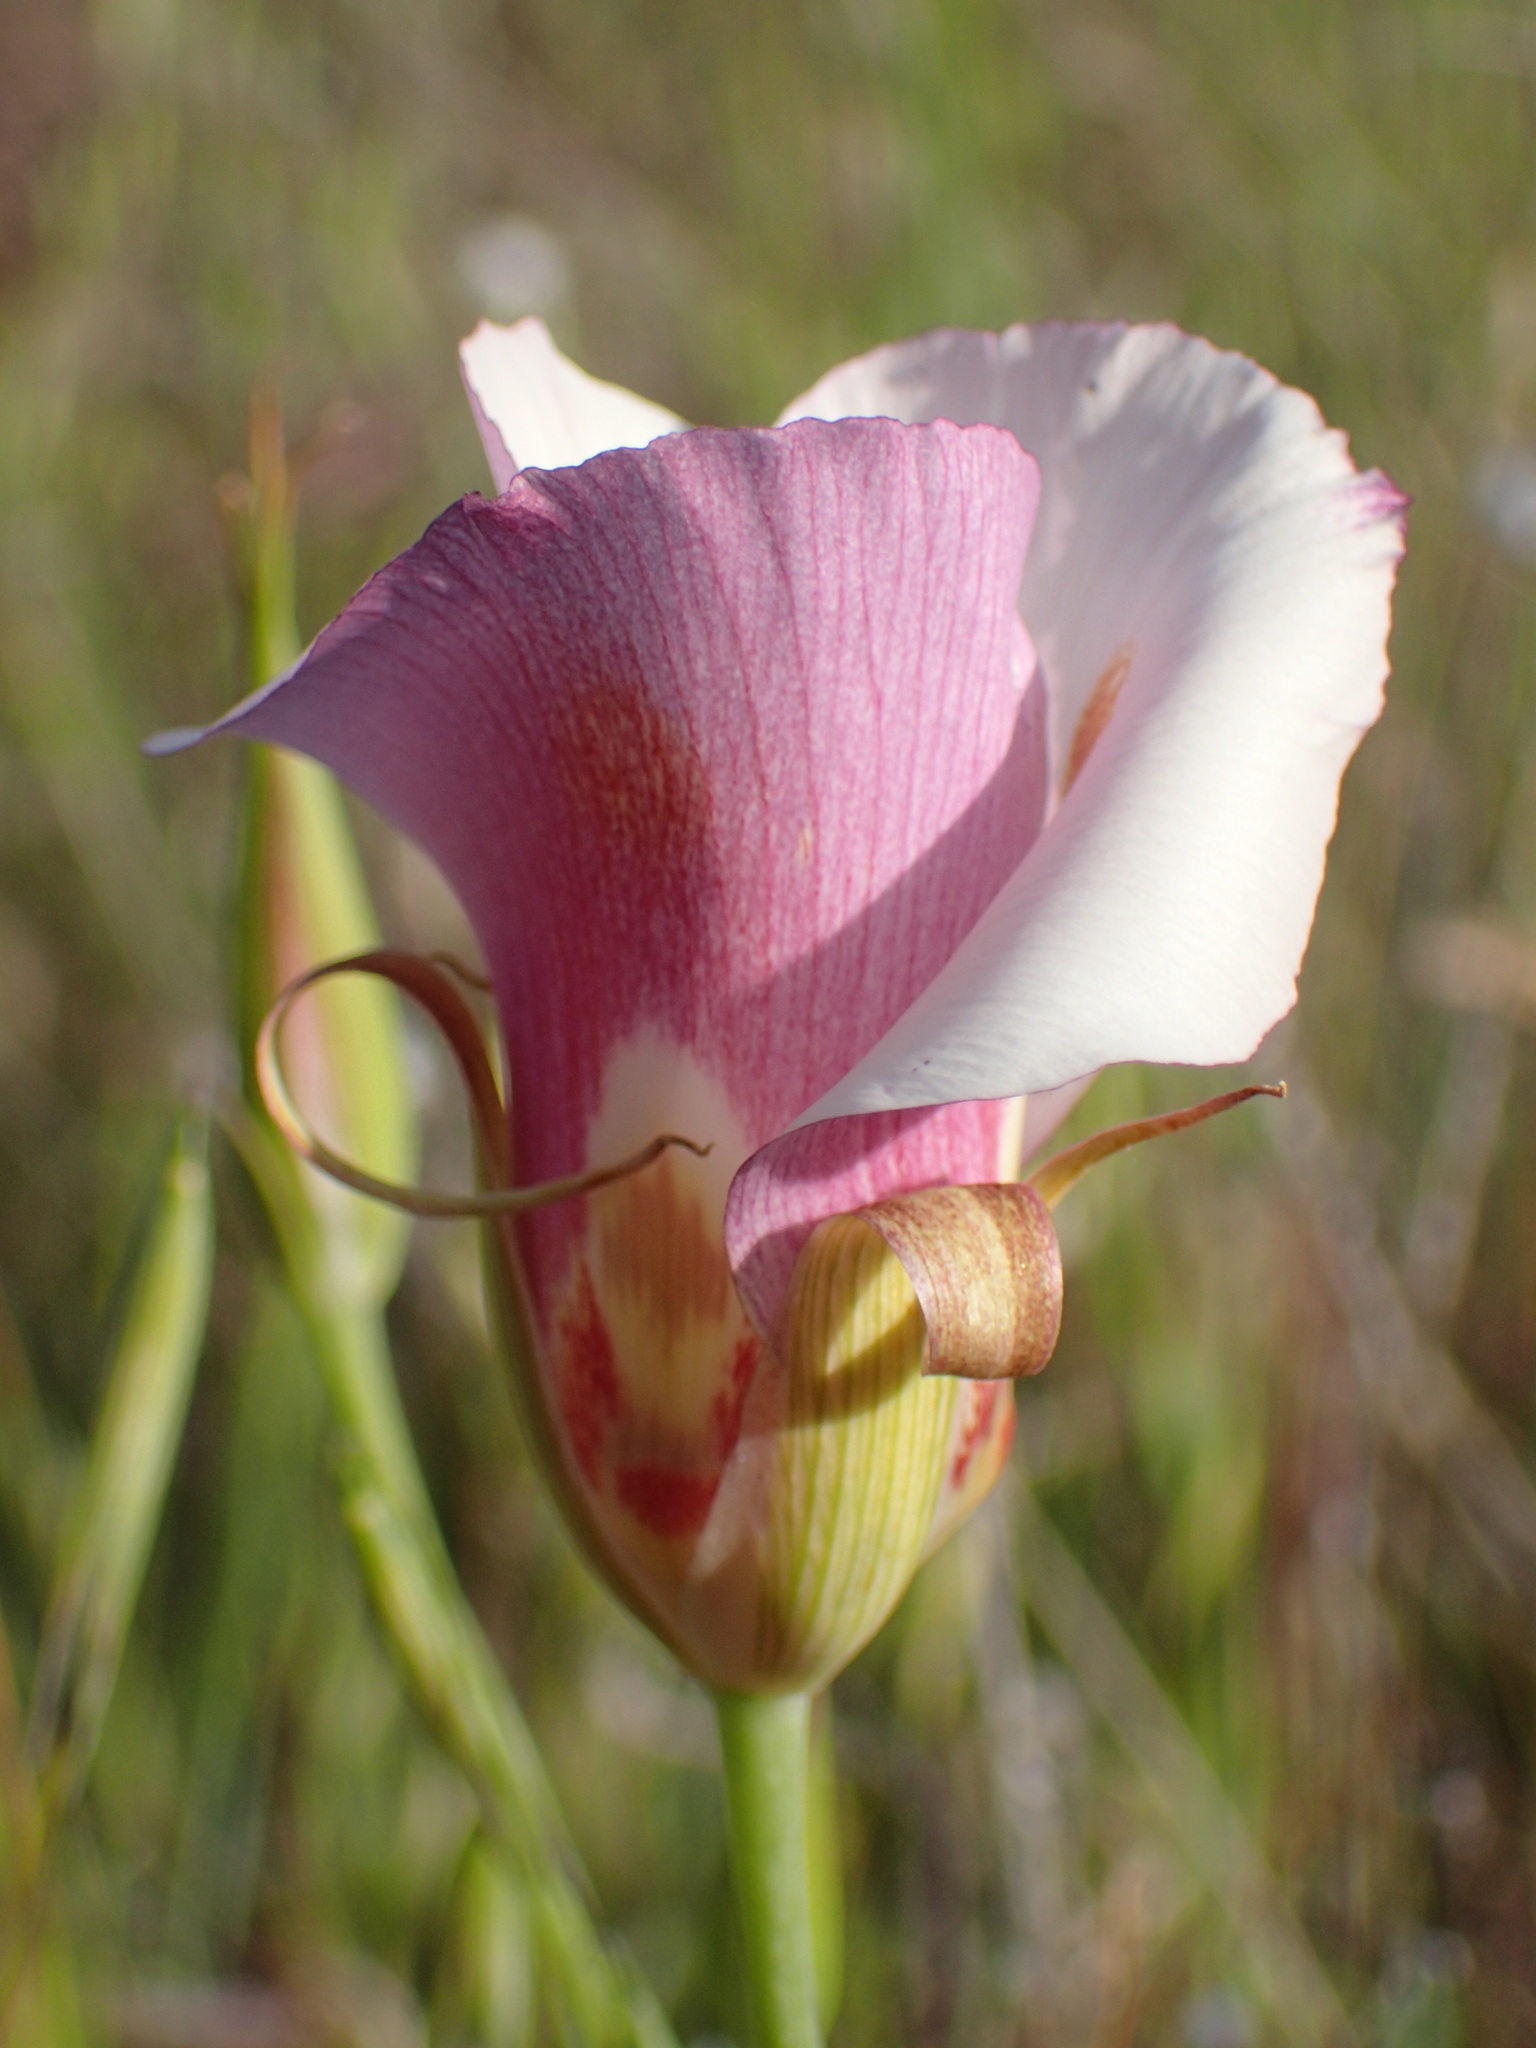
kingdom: Plantae
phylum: Tracheophyta
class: Liliopsida
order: Liliales
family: Liliaceae
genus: Calochortus
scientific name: Calochortus venustus
